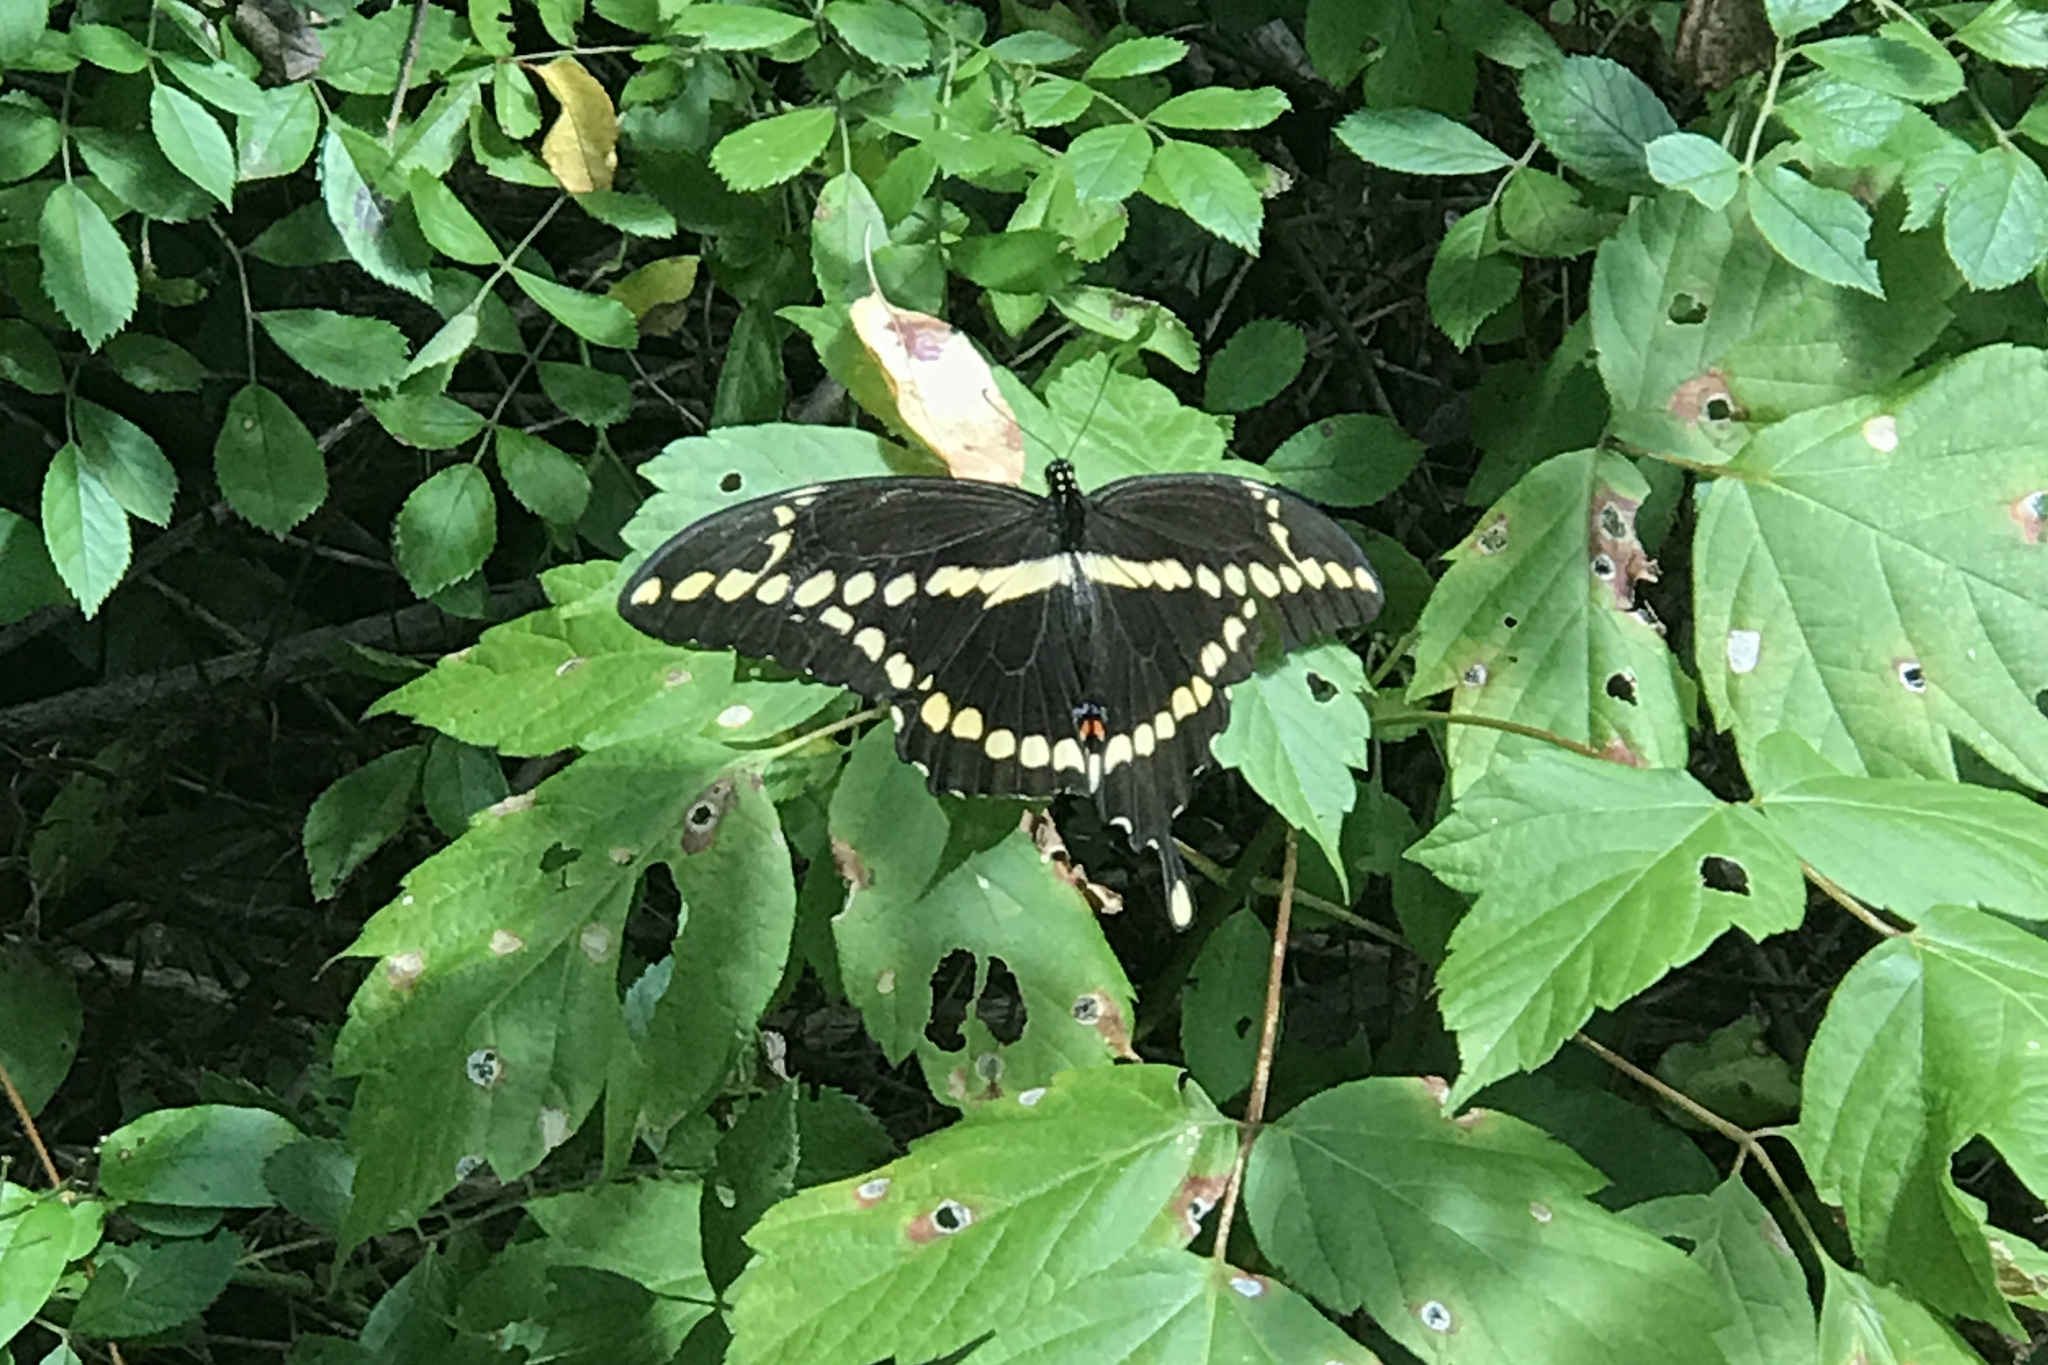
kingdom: Animalia
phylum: Arthropoda
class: Insecta
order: Lepidoptera
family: Papilionidae
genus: Papilio
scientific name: Papilio cresphontes
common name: Giant swallowtail
